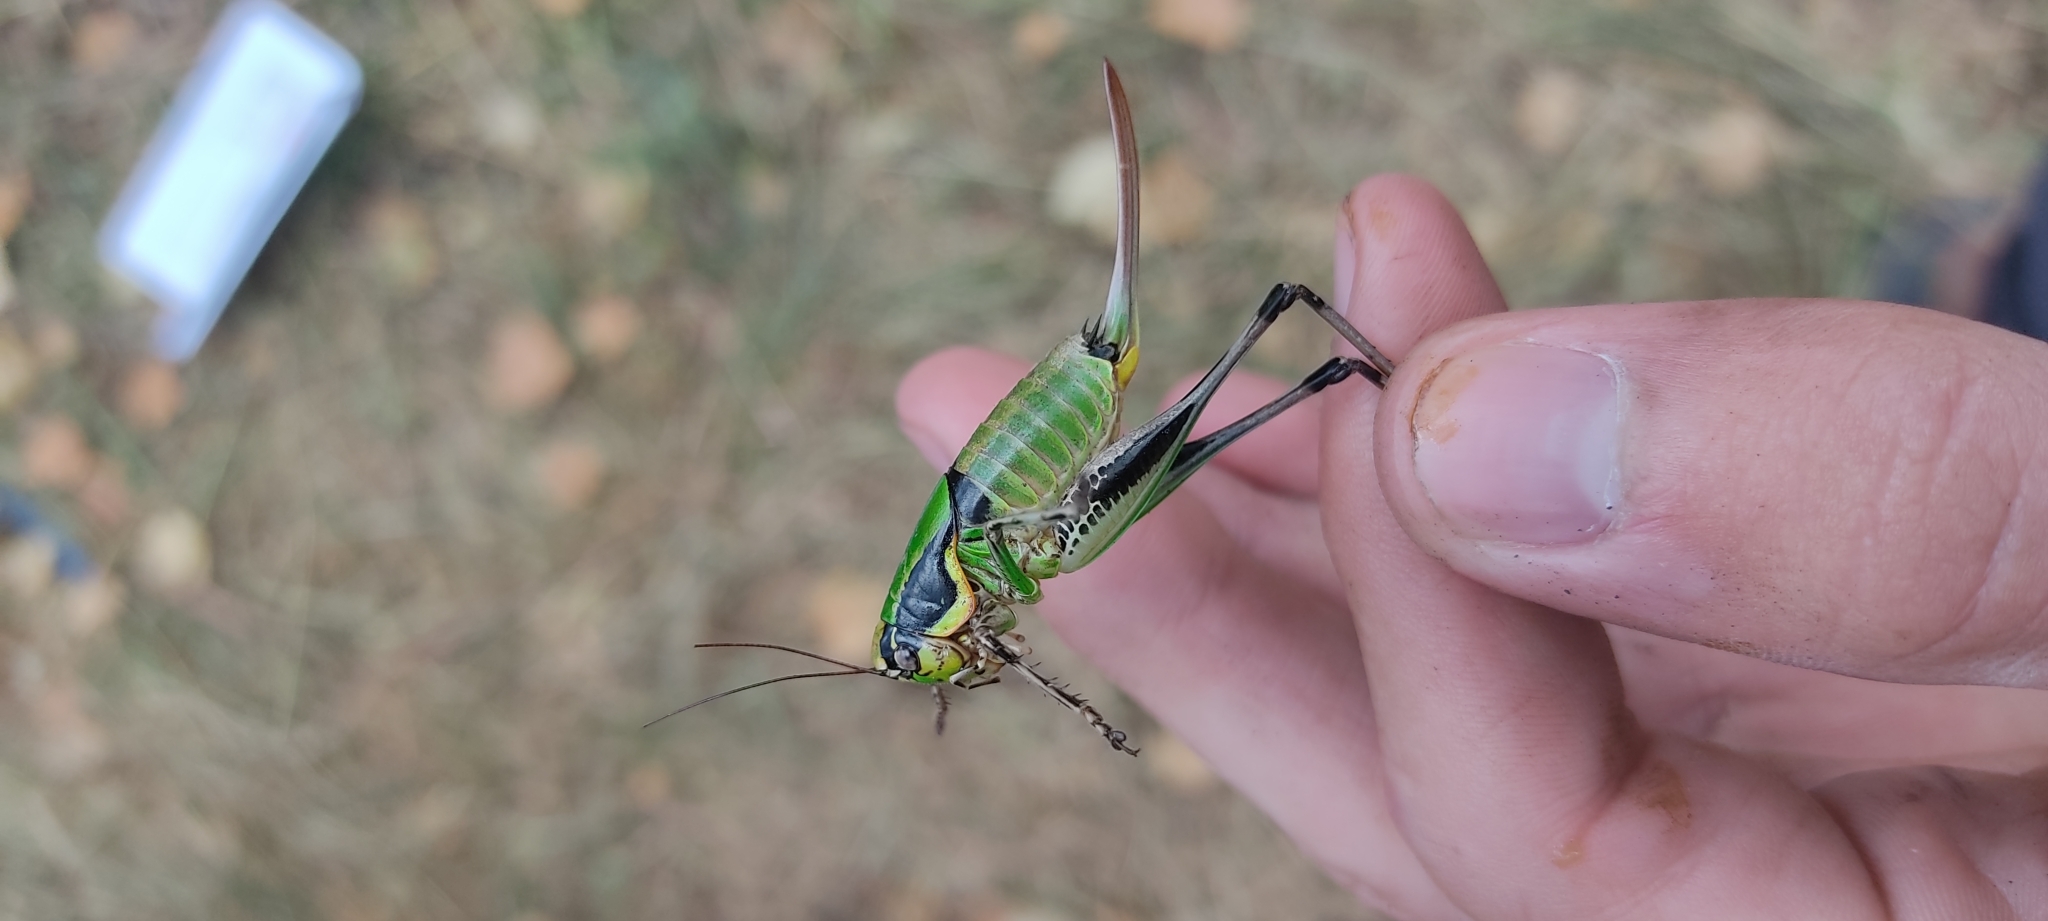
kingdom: Animalia
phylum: Arthropoda
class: Insecta
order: Orthoptera
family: Tettigoniidae
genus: Eupholidoptera
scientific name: Eupholidoptera chabrieri
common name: Chabrier's marbled bush-cricket
